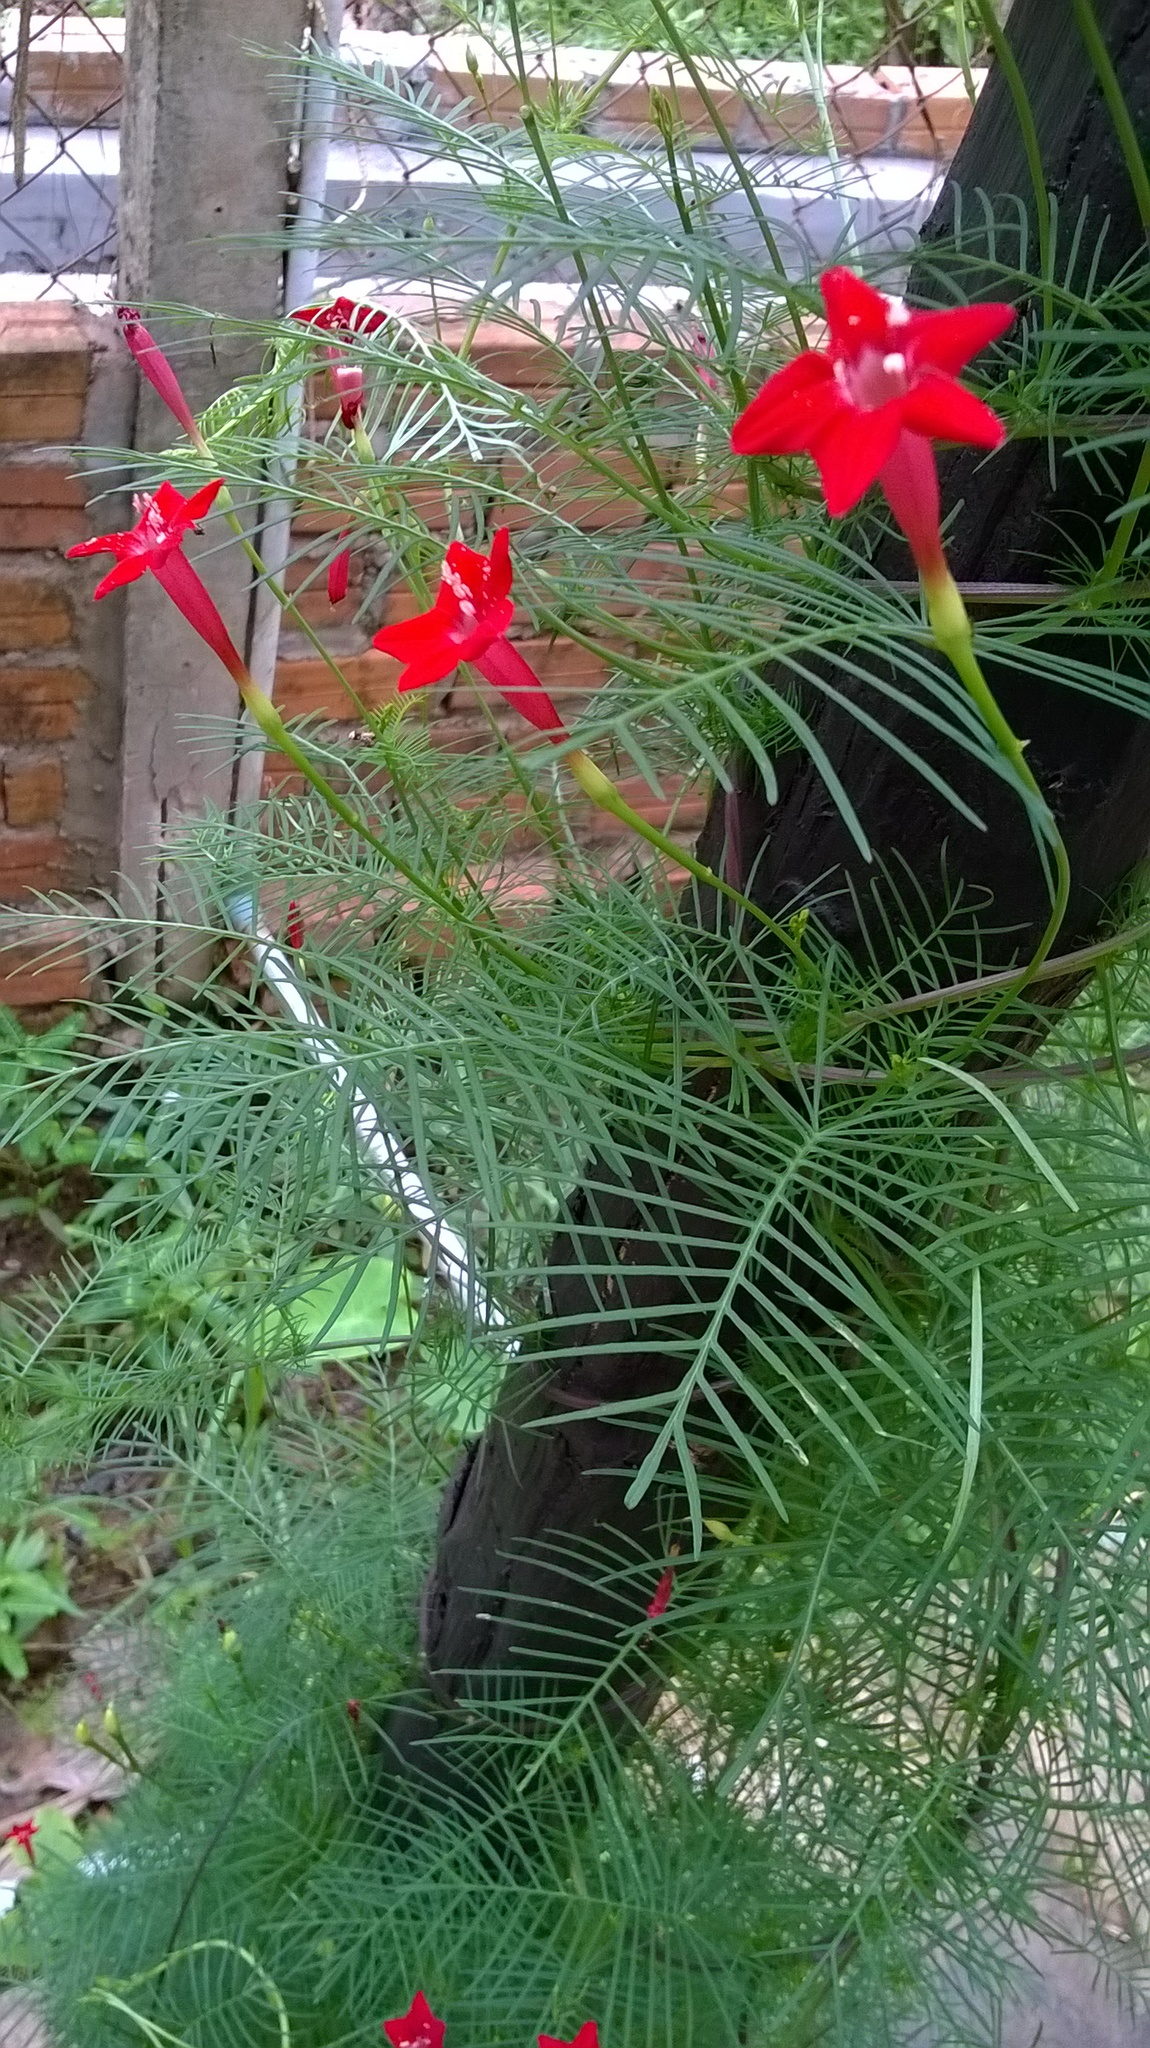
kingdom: Plantae
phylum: Tracheophyta
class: Magnoliopsida
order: Solanales
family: Convolvulaceae
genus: Ipomoea
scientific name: Ipomoea quamoclit
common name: Cypress vine
